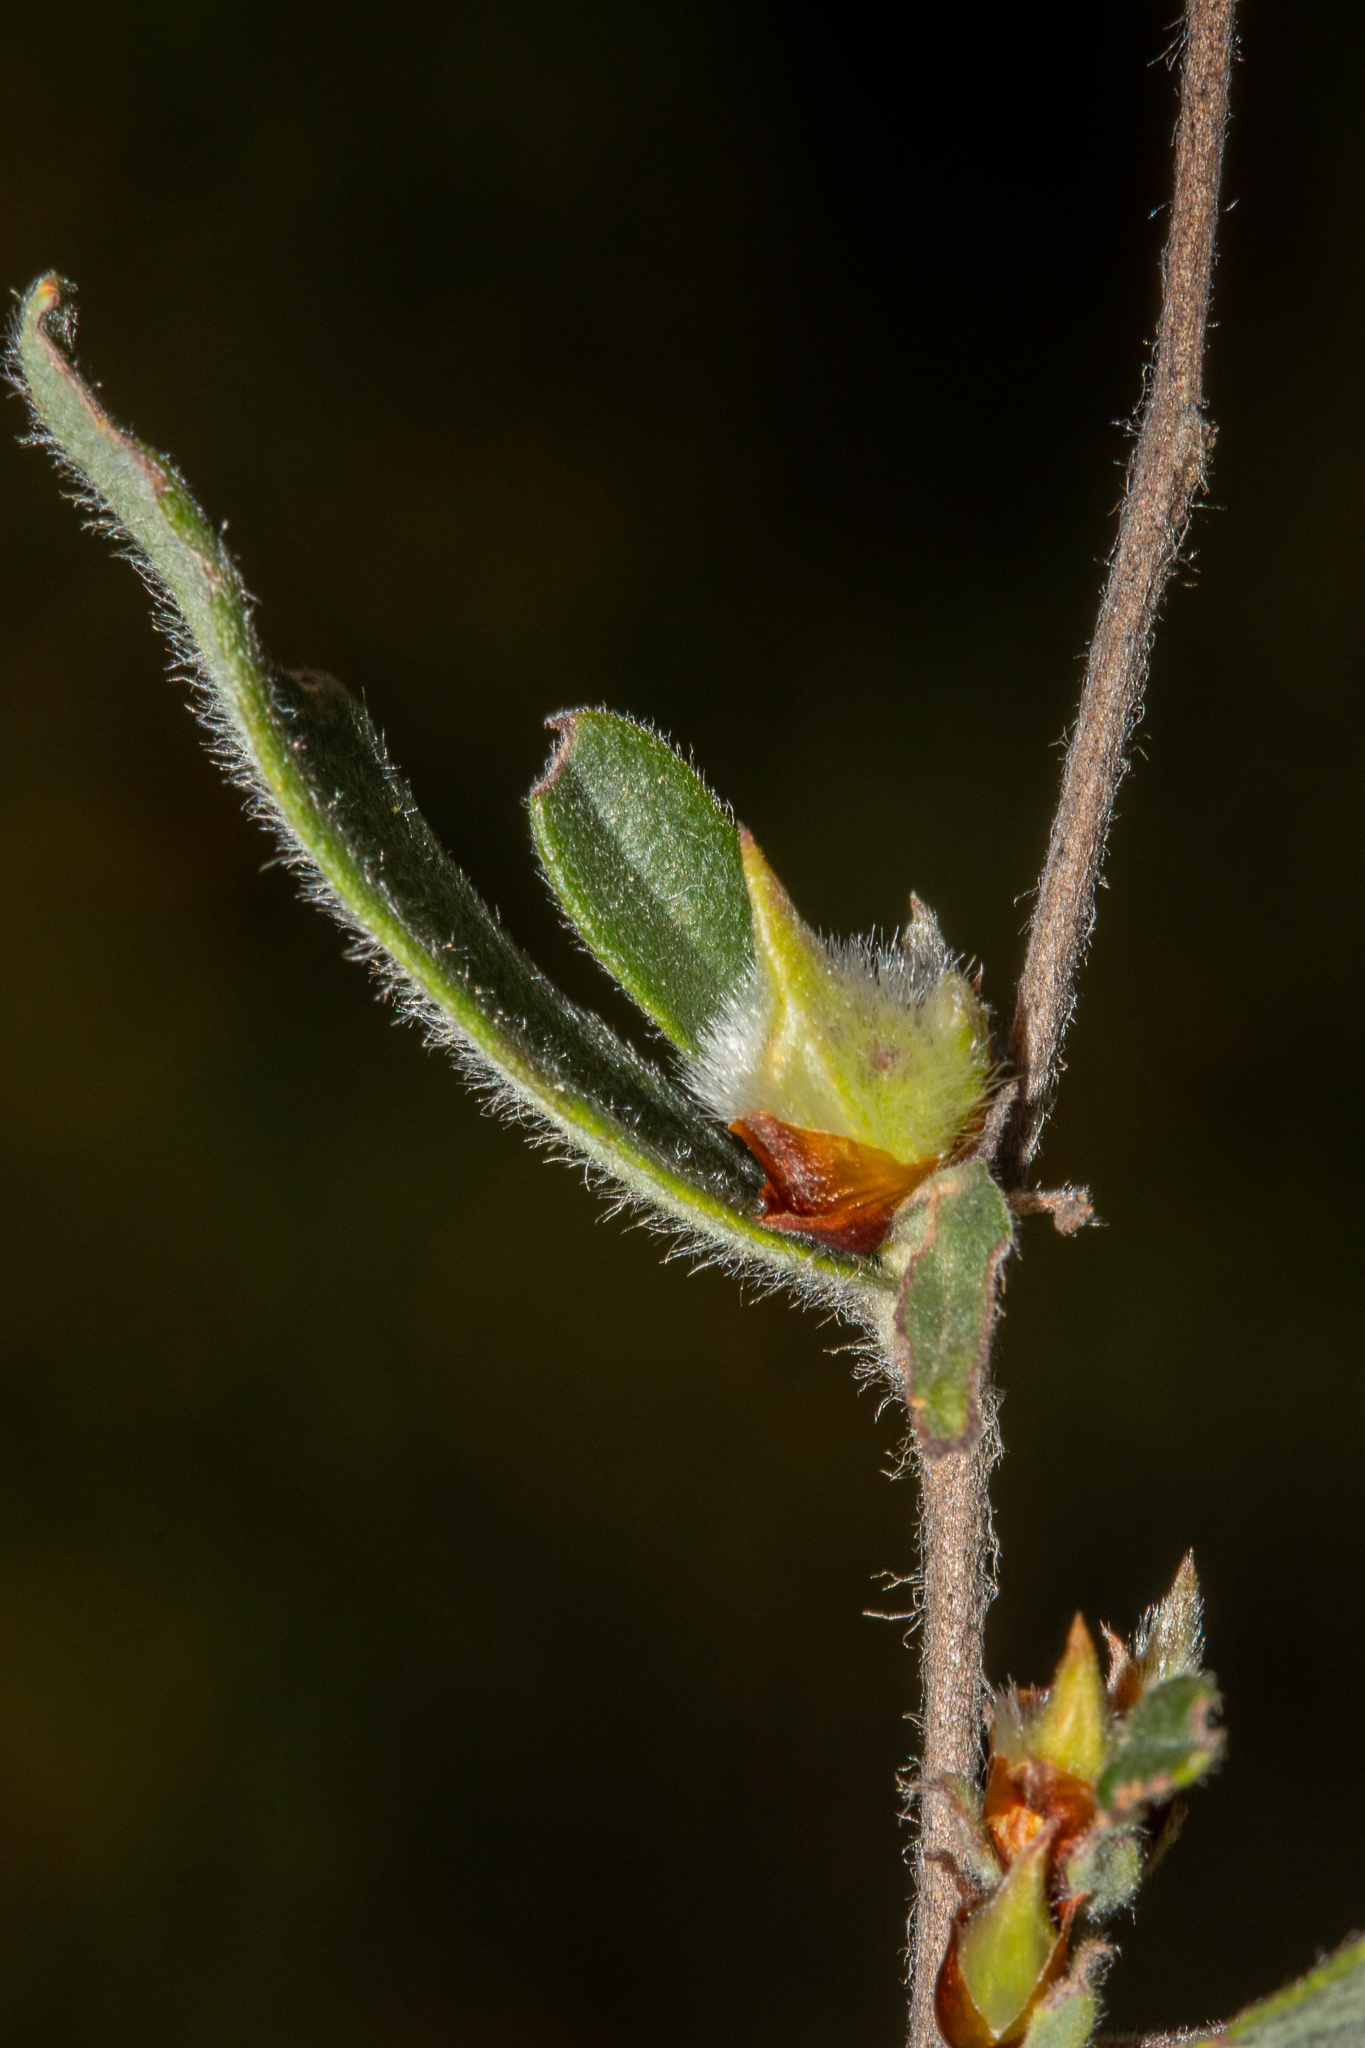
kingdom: Plantae
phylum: Tracheophyta
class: Magnoliopsida
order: Dilleniales
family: Dilleniaceae
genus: Hibbertia
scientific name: Hibbertia commutata
